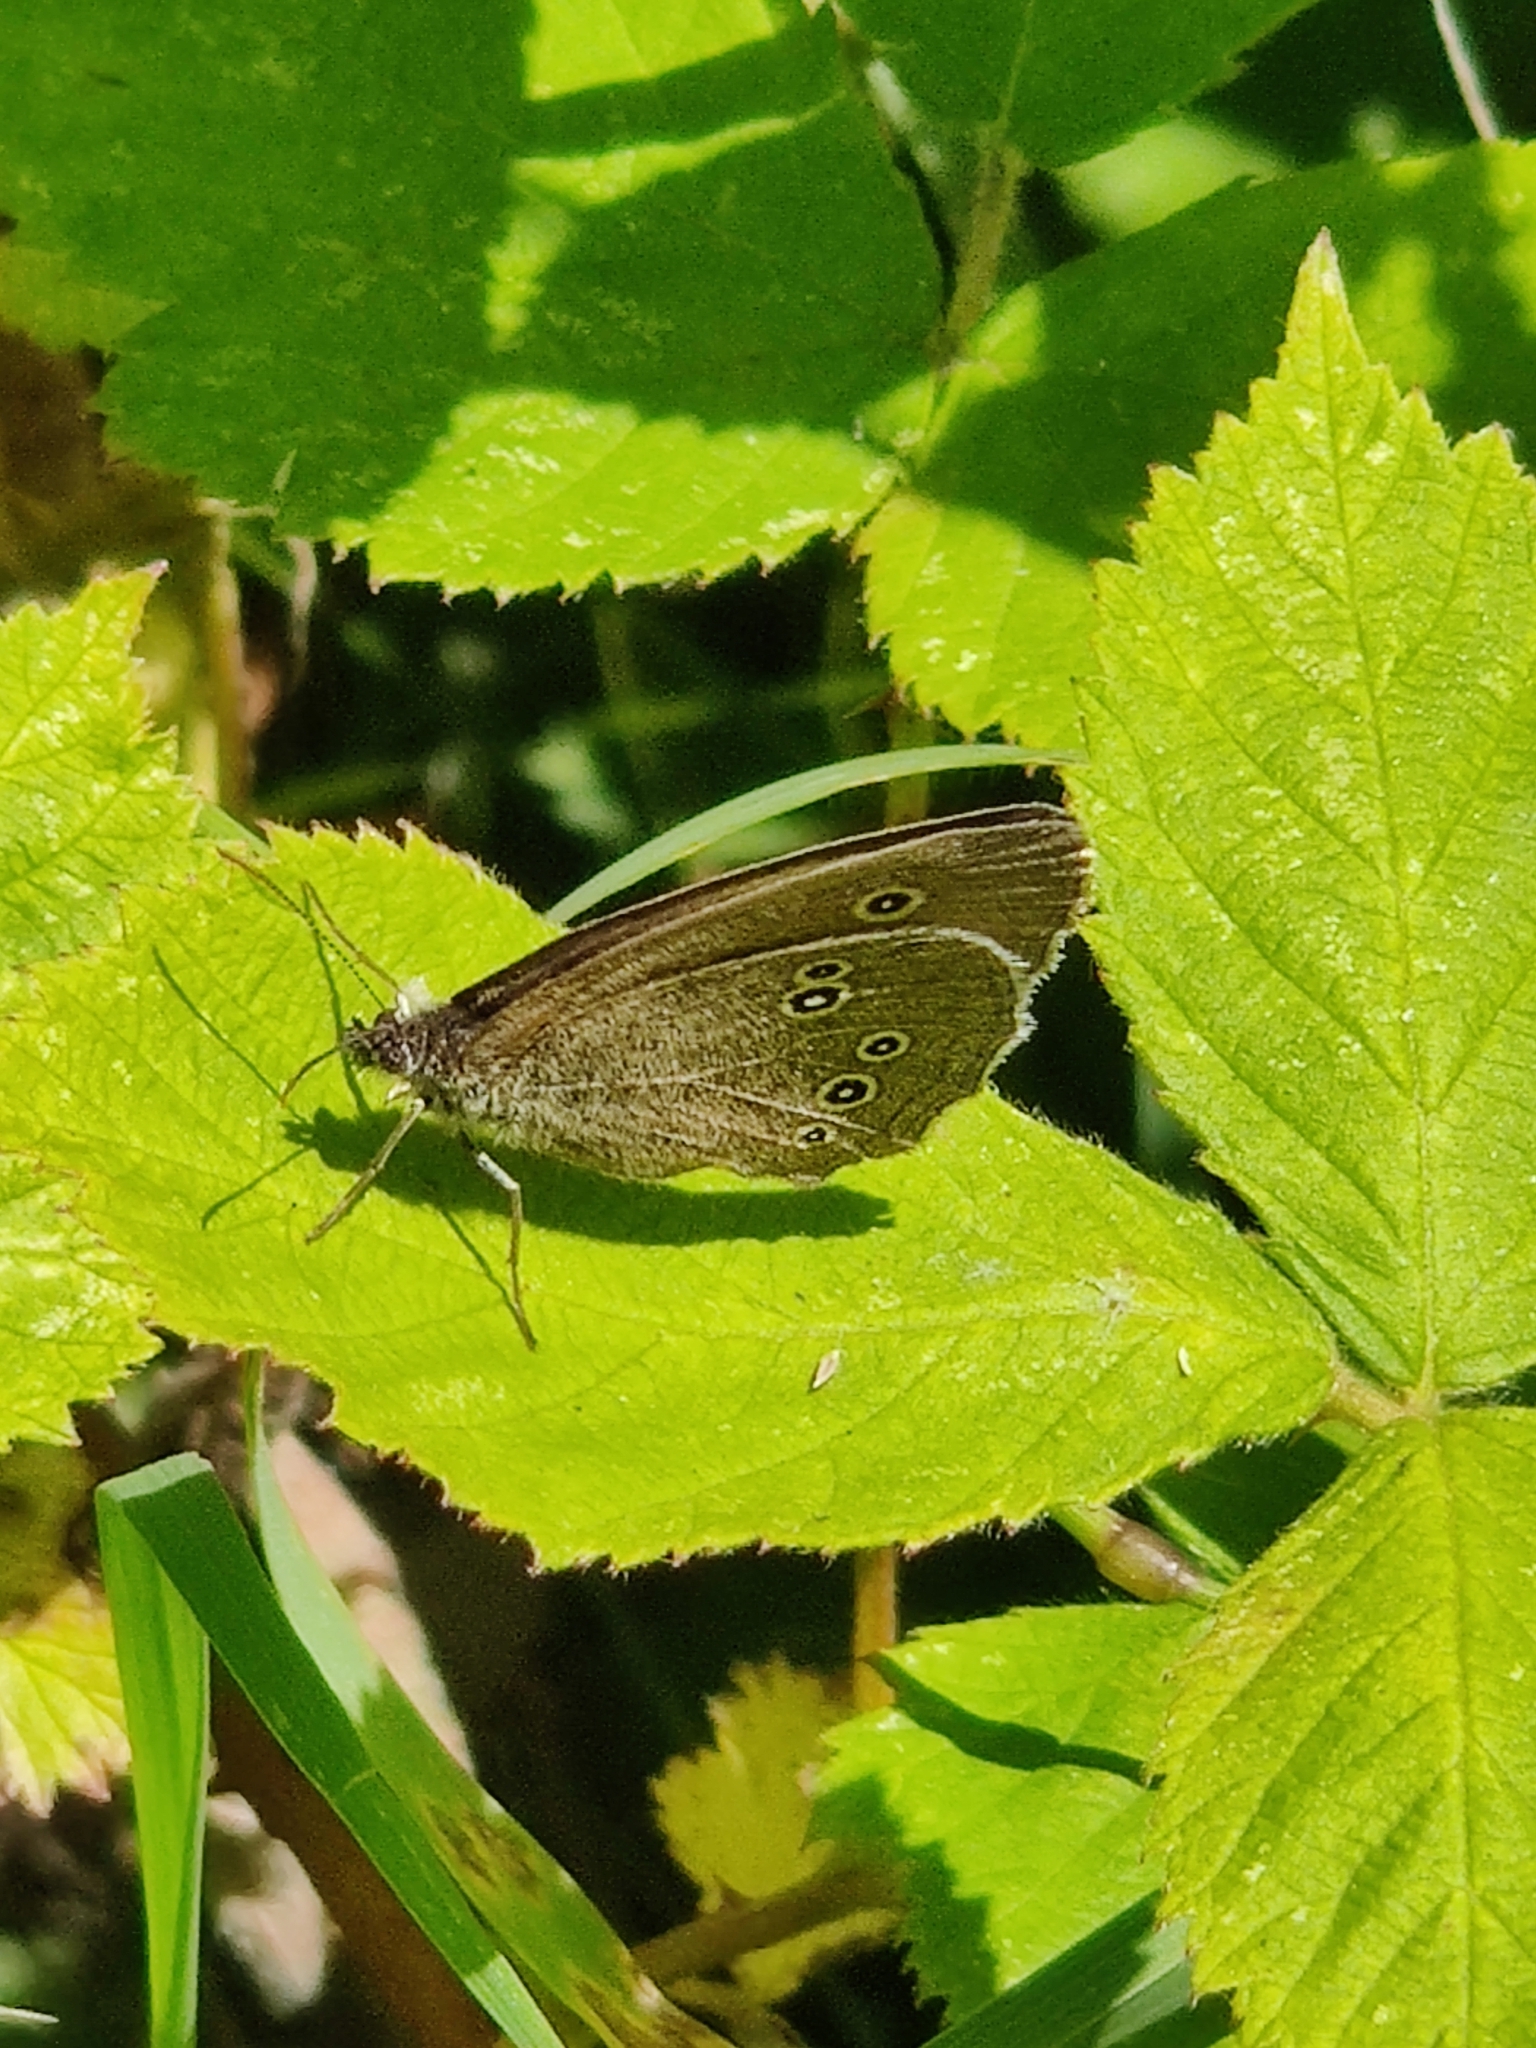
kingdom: Animalia
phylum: Arthropoda
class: Insecta
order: Lepidoptera
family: Nymphalidae
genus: Aphantopus
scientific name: Aphantopus hyperantus
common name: Ringlet
